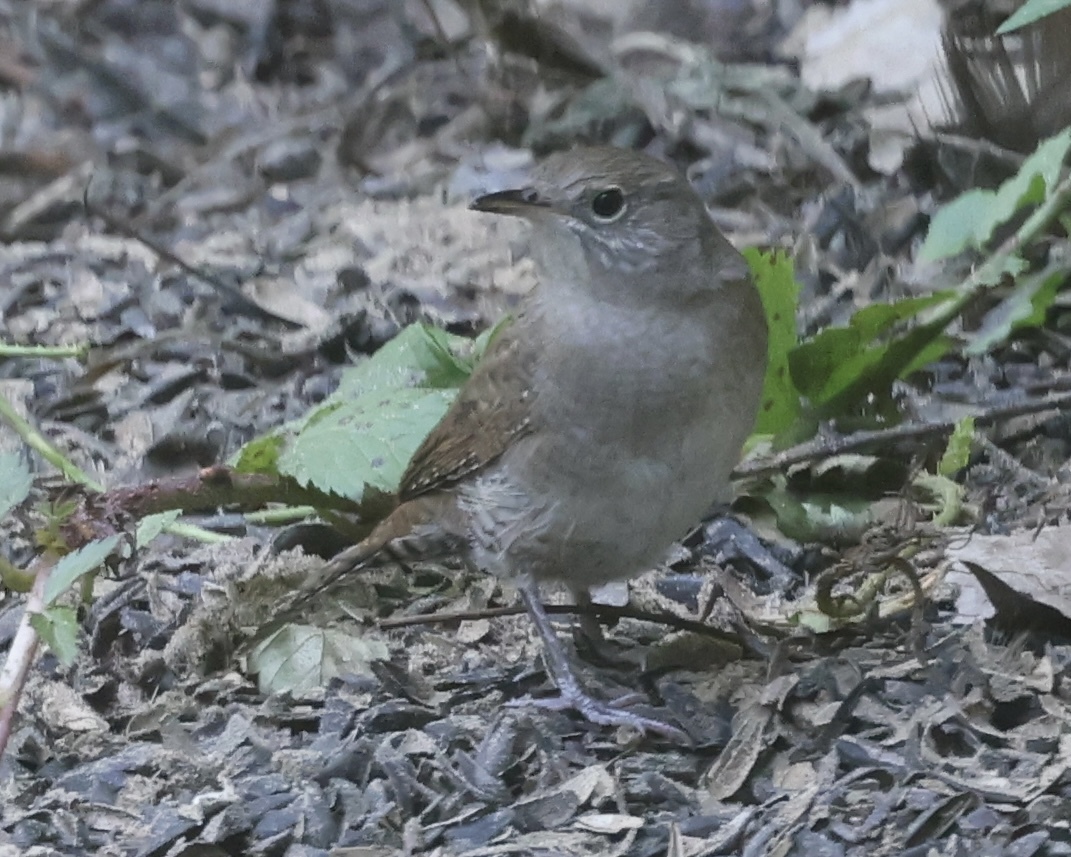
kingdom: Animalia
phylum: Chordata
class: Aves
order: Passeriformes
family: Troglodytidae
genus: Troglodytes
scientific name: Troglodytes aedon
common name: House wren
